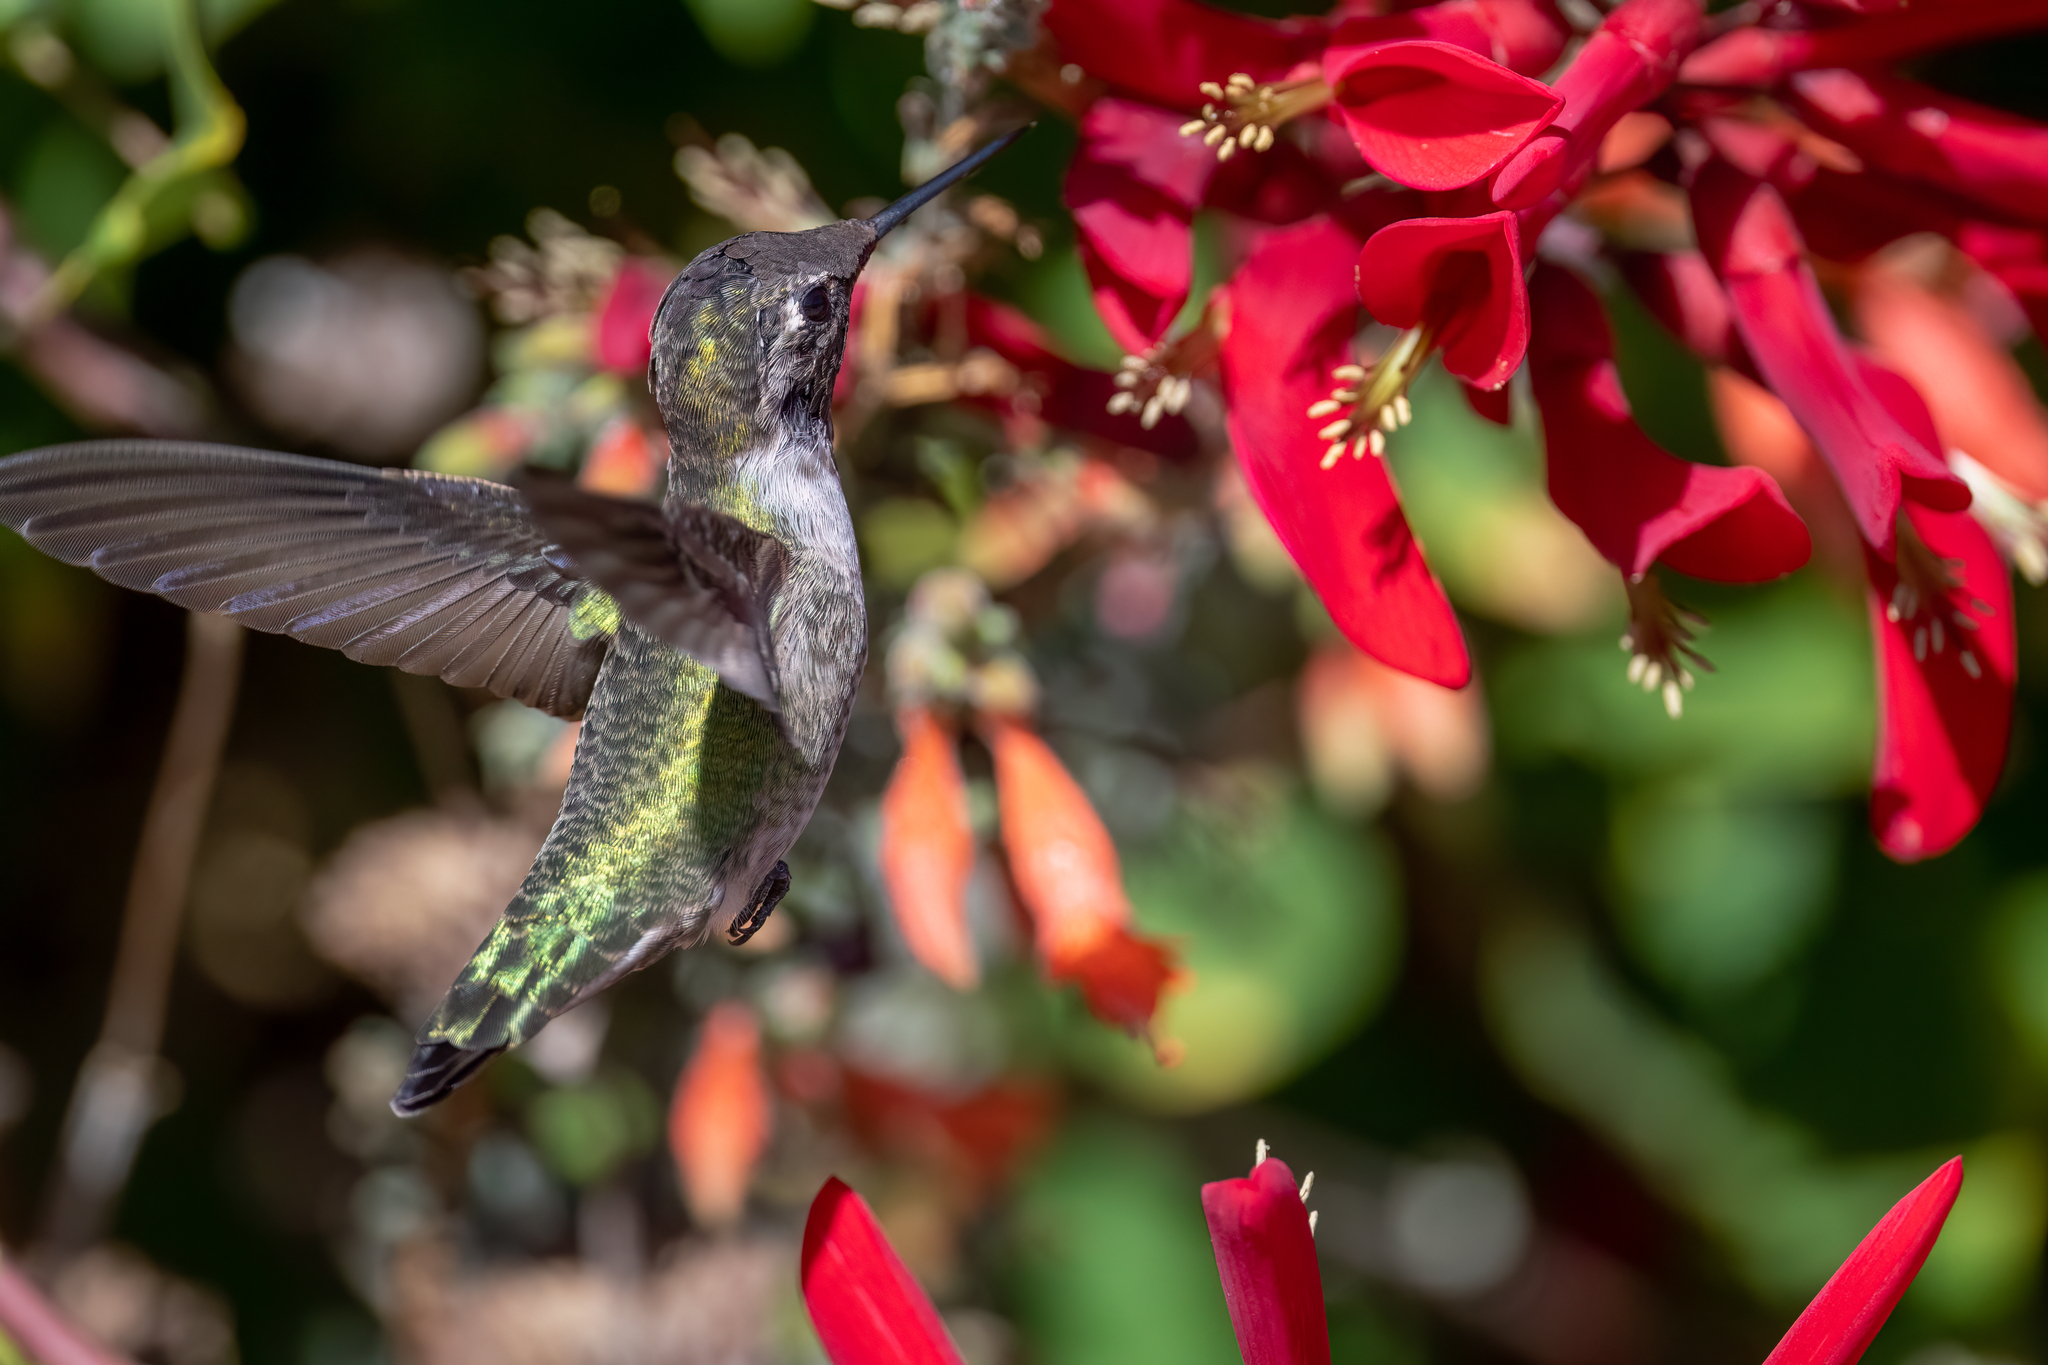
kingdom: Animalia
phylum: Chordata
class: Aves
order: Apodiformes
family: Trochilidae
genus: Calypte
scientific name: Calypte anna
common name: Anna's hummingbird
